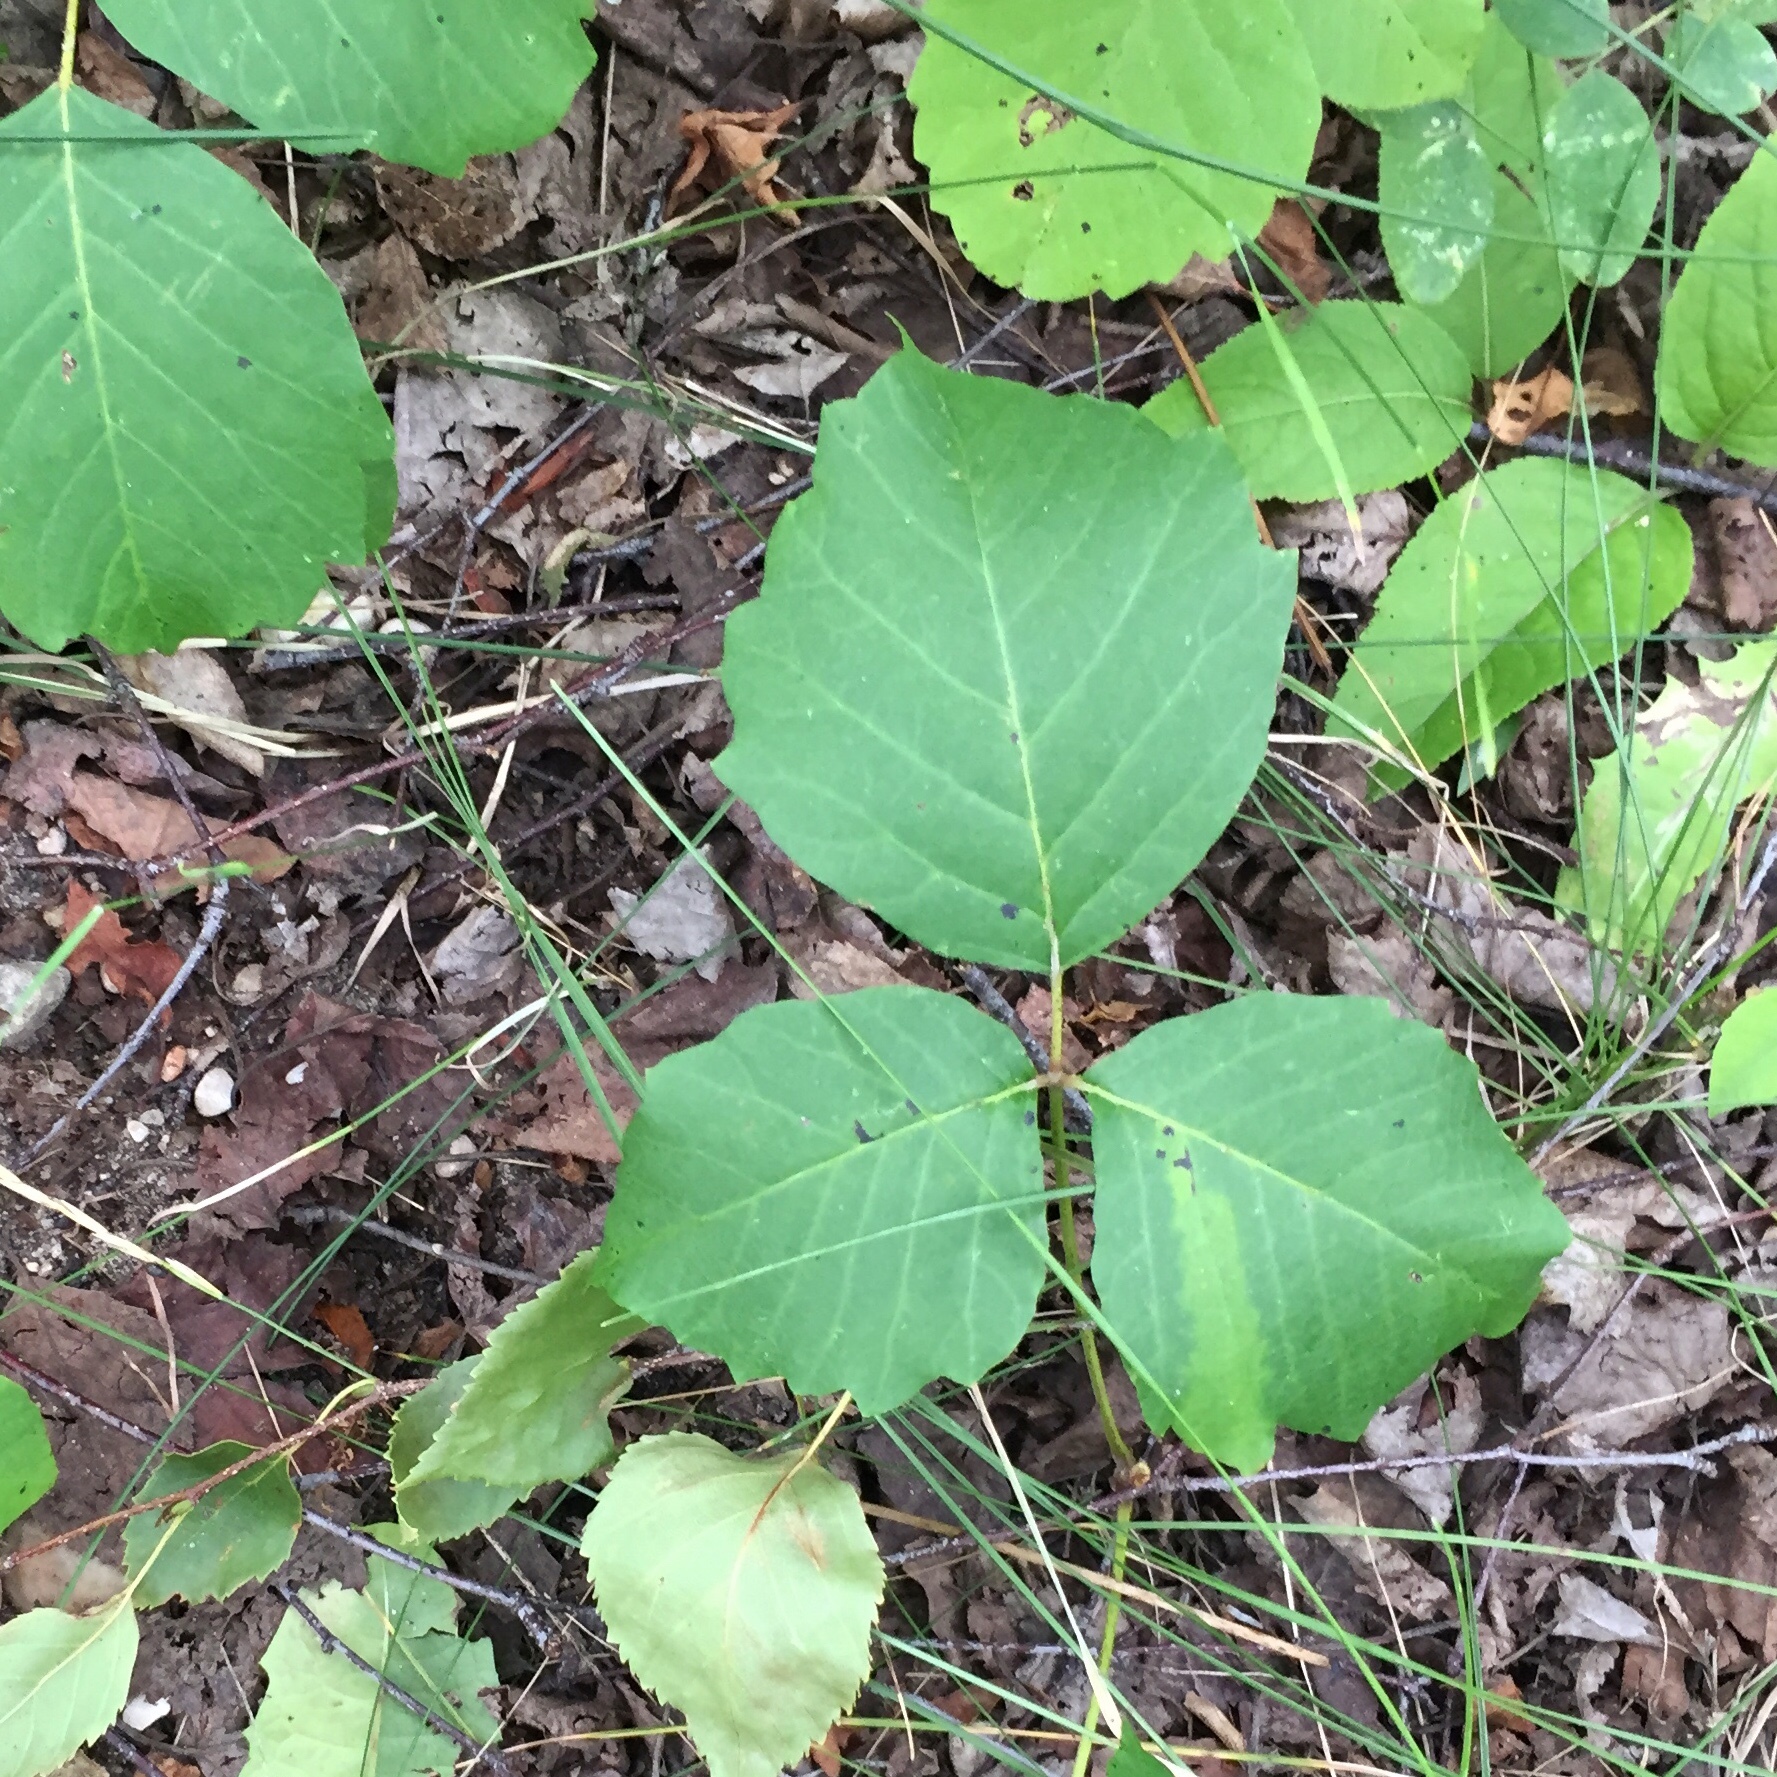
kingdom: Plantae
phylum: Tracheophyta
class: Magnoliopsida
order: Sapindales
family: Anacardiaceae
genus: Toxicodendron
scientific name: Toxicodendron rydbergii
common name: Rydberg's poison-ivy
